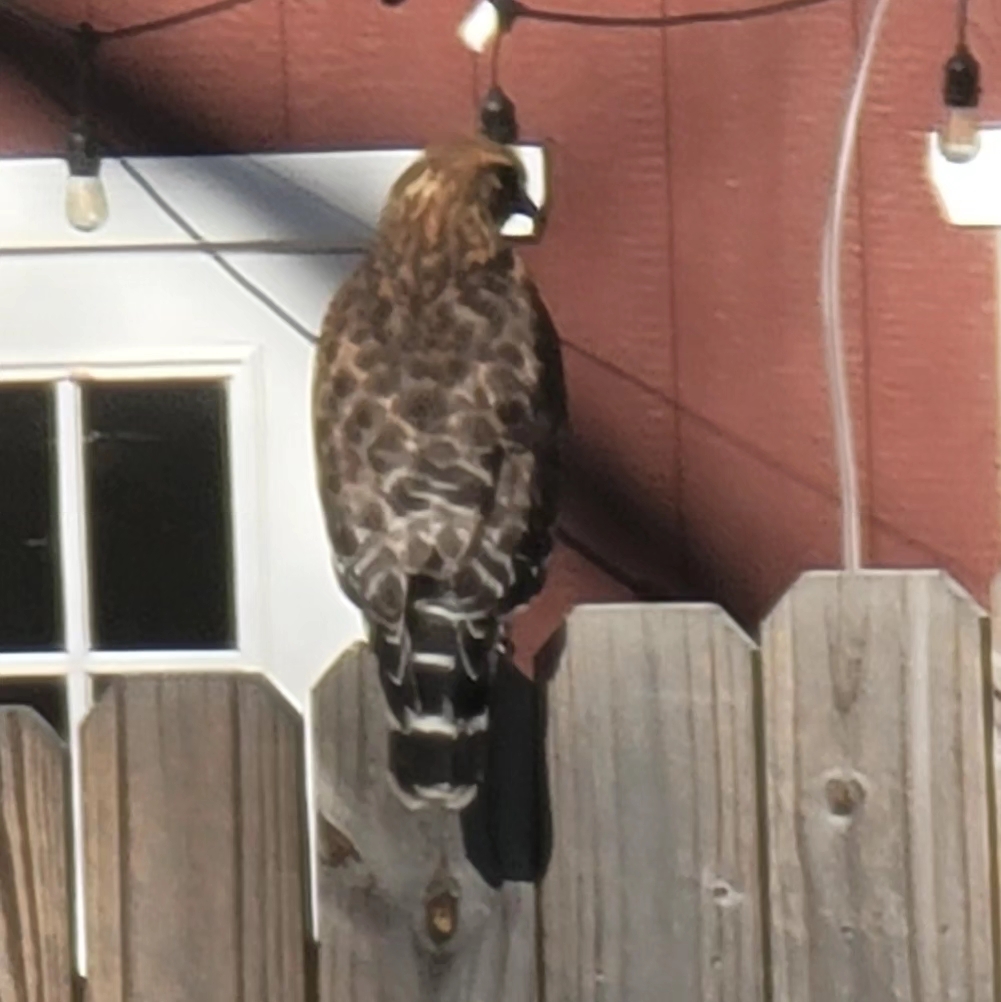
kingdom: Animalia
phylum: Chordata
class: Aves
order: Accipitriformes
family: Accipitridae
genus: Buteo
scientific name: Buteo lineatus
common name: Red-shouldered hawk
